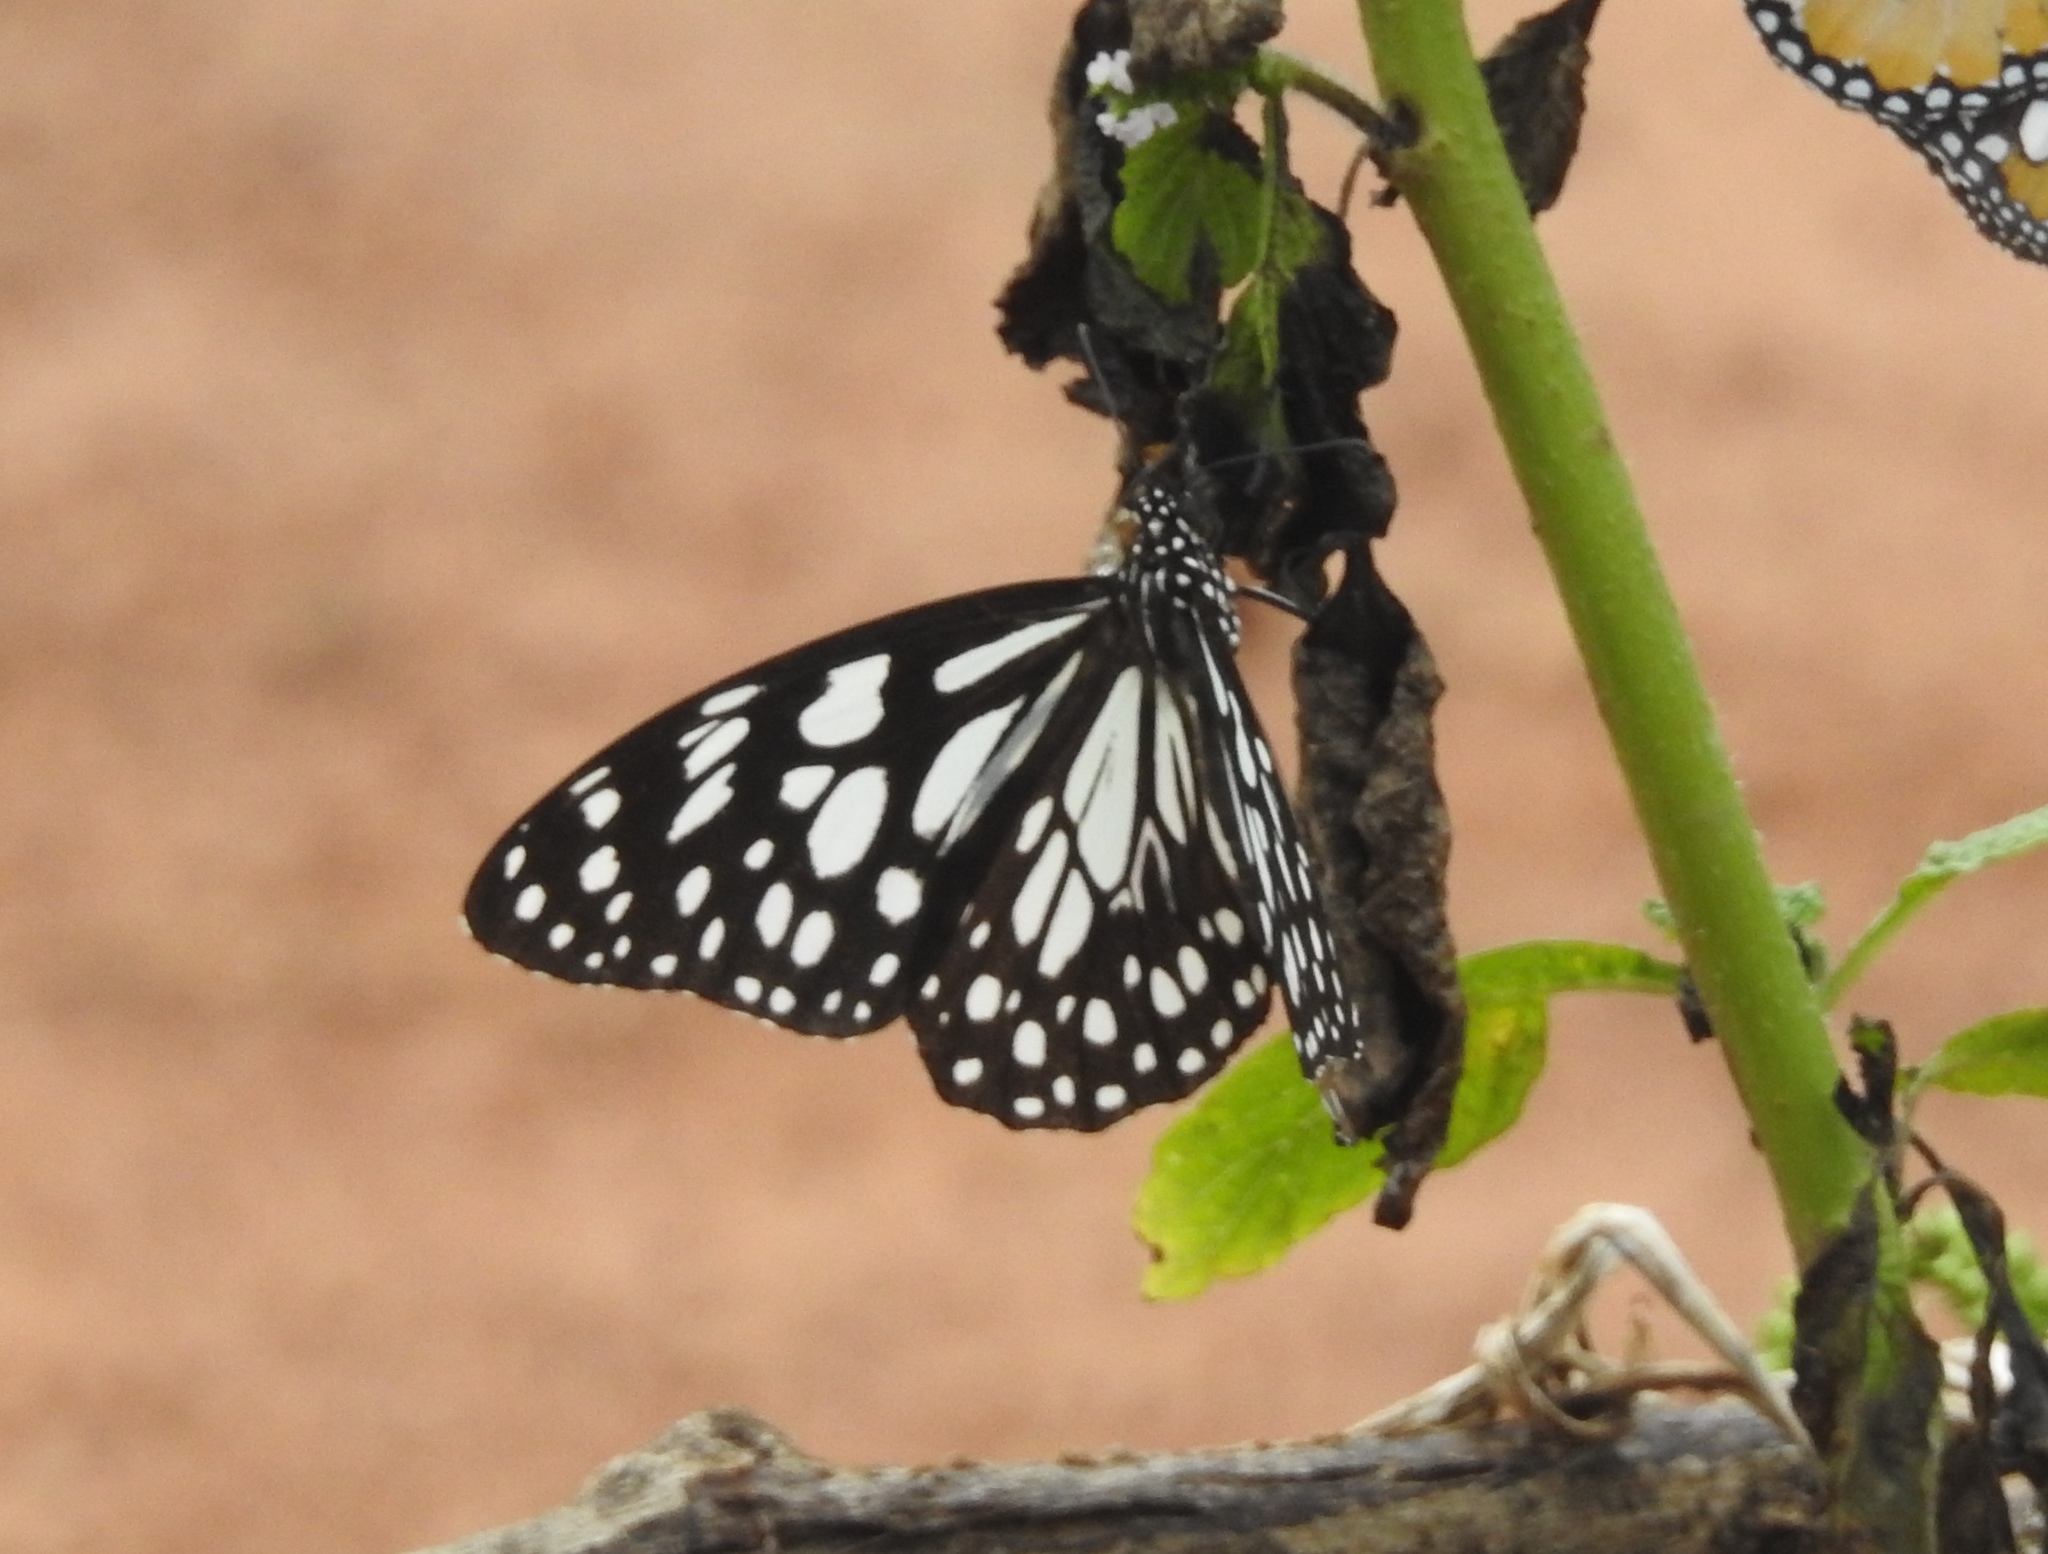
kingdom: Animalia
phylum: Arthropoda
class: Insecta
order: Lepidoptera
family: Nymphalidae
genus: Tirumala
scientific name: Tirumala limniace
